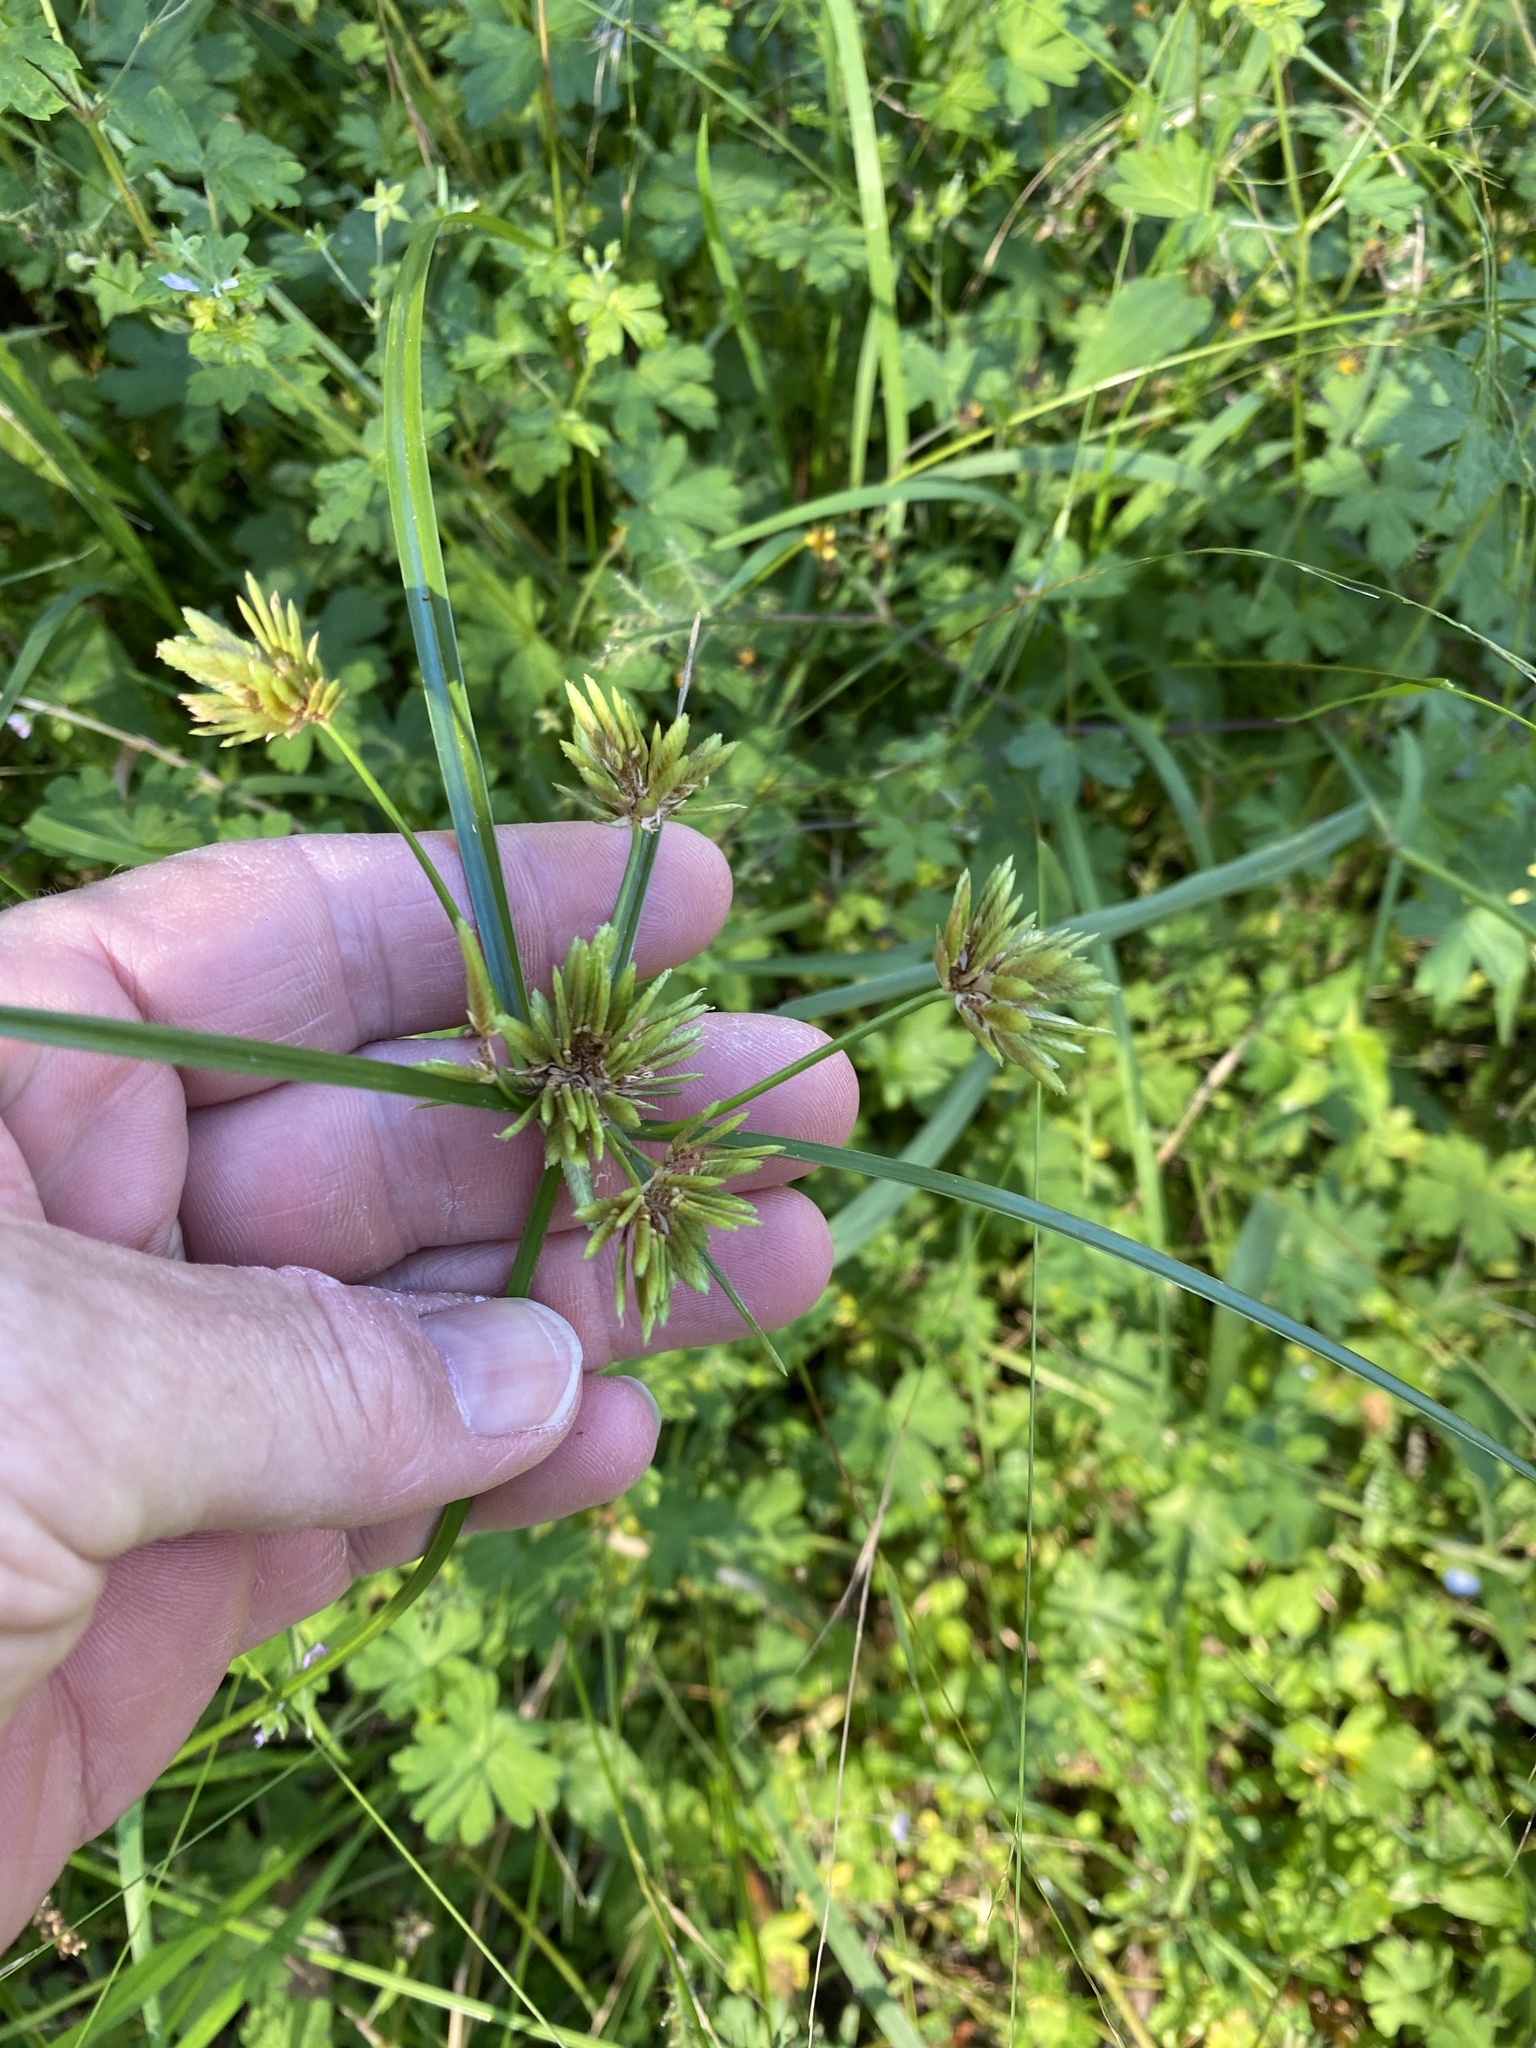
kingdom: Plantae
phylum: Tracheophyta
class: Liliopsida
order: Poales
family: Cyperaceae
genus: Cyperus
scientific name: Cyperus eragrostis
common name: Tall flatsedge
